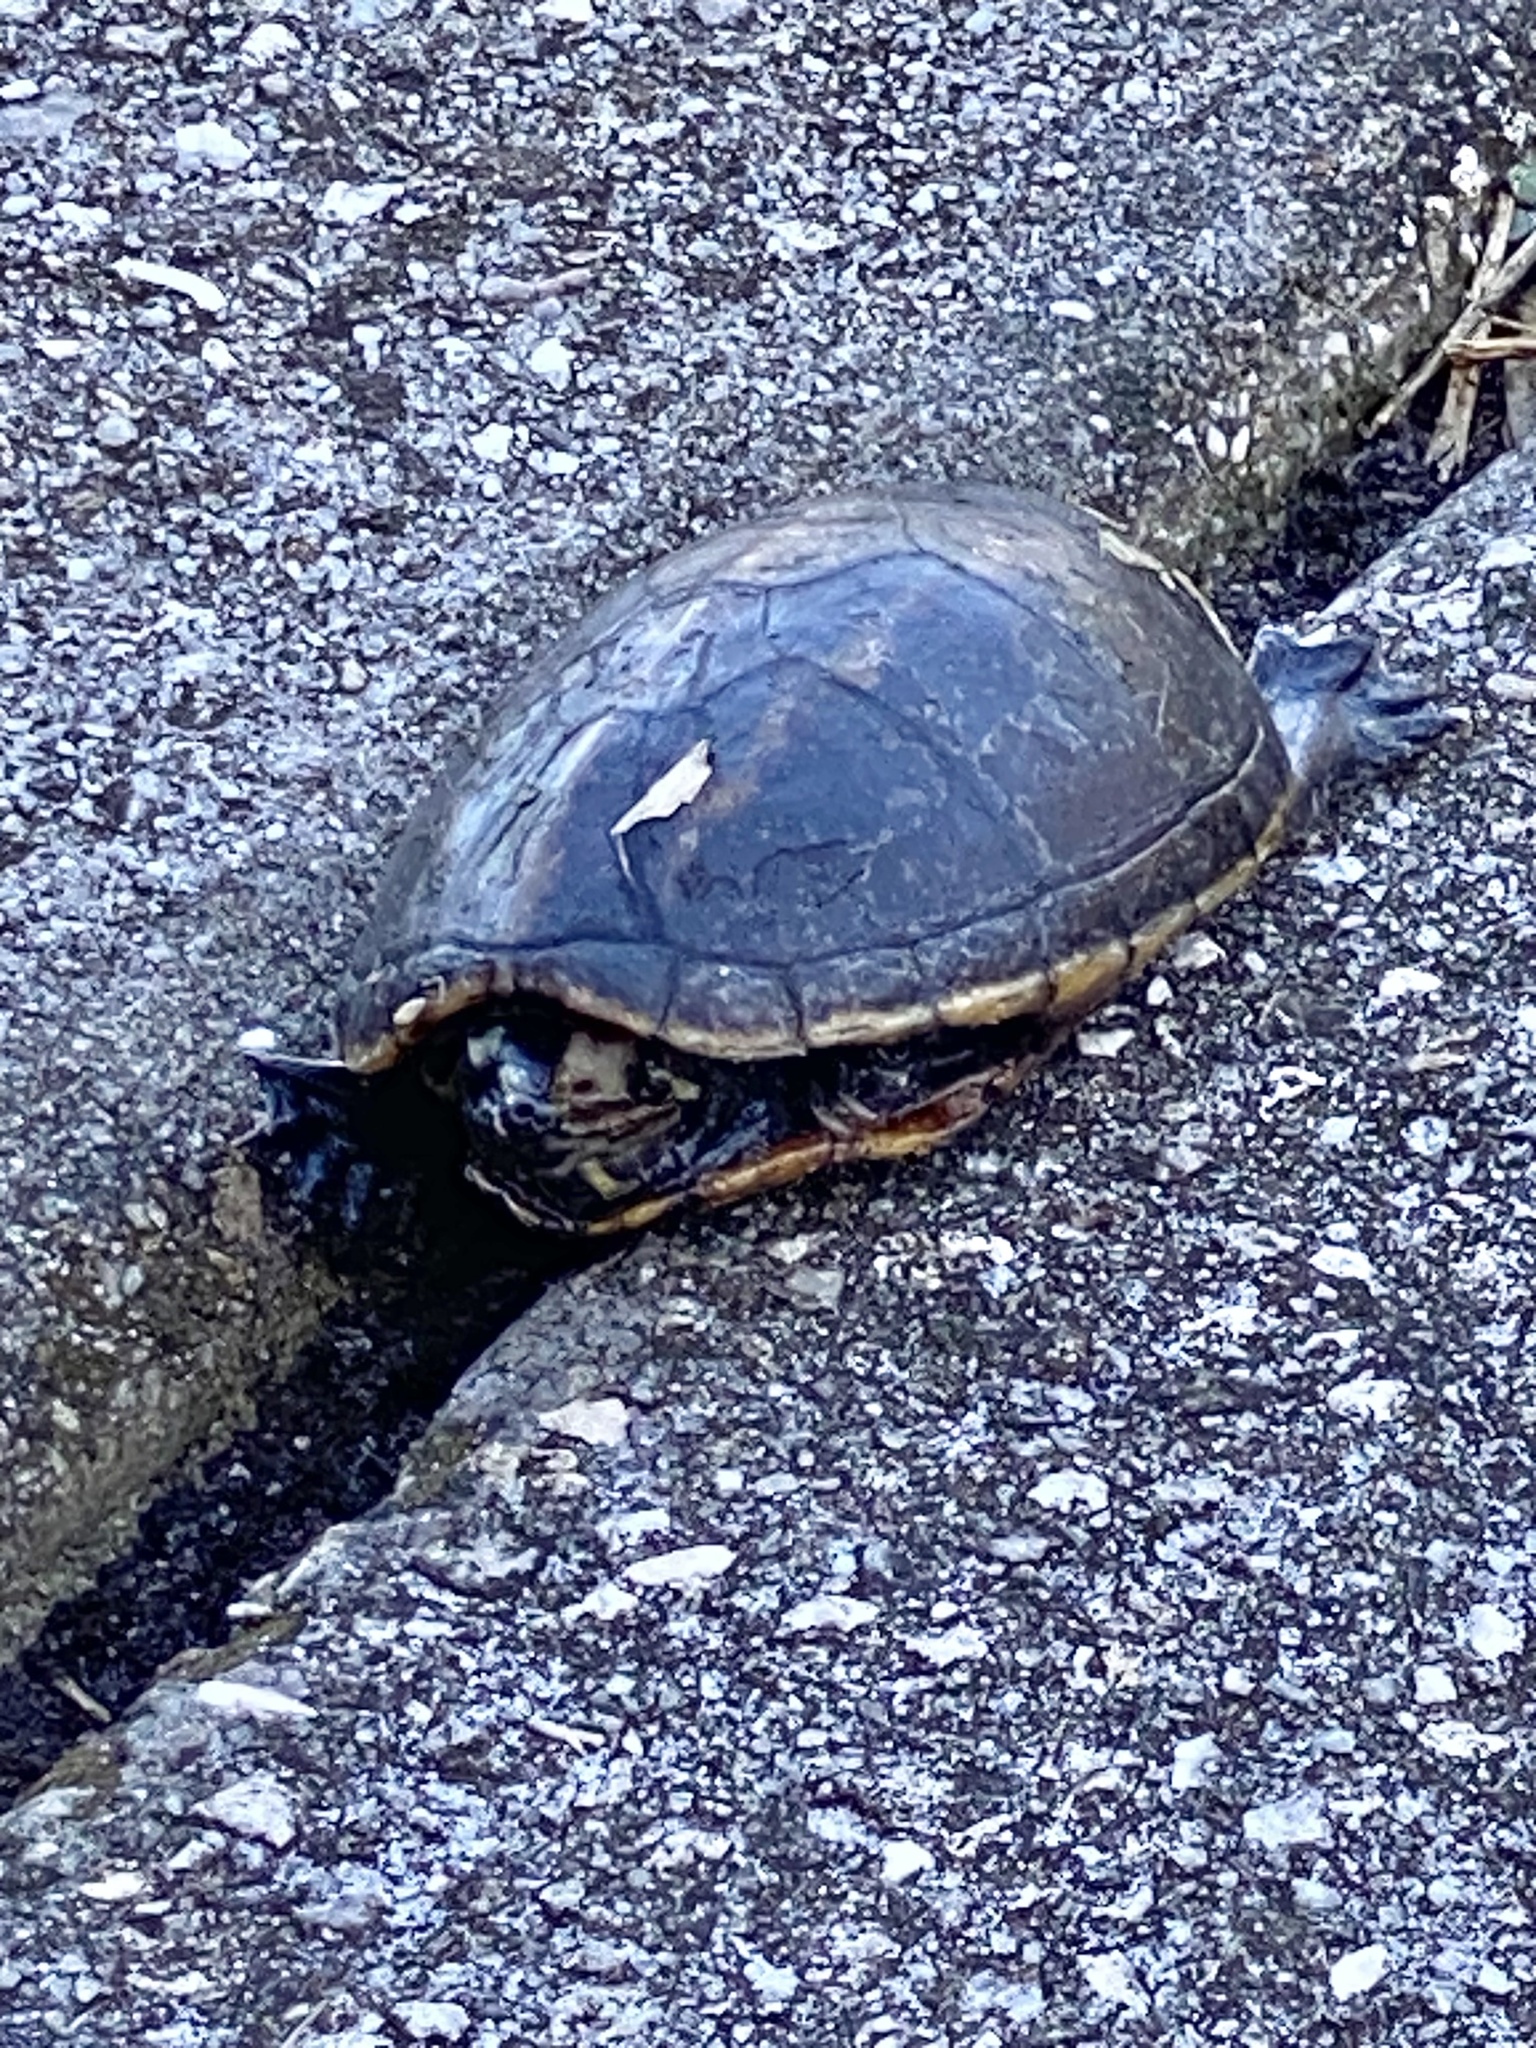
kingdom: Animalia
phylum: Chordata
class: Testudines
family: Kinosternidae
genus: Kinosternon
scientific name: Kinosternon baurii
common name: Striped mud turtle
